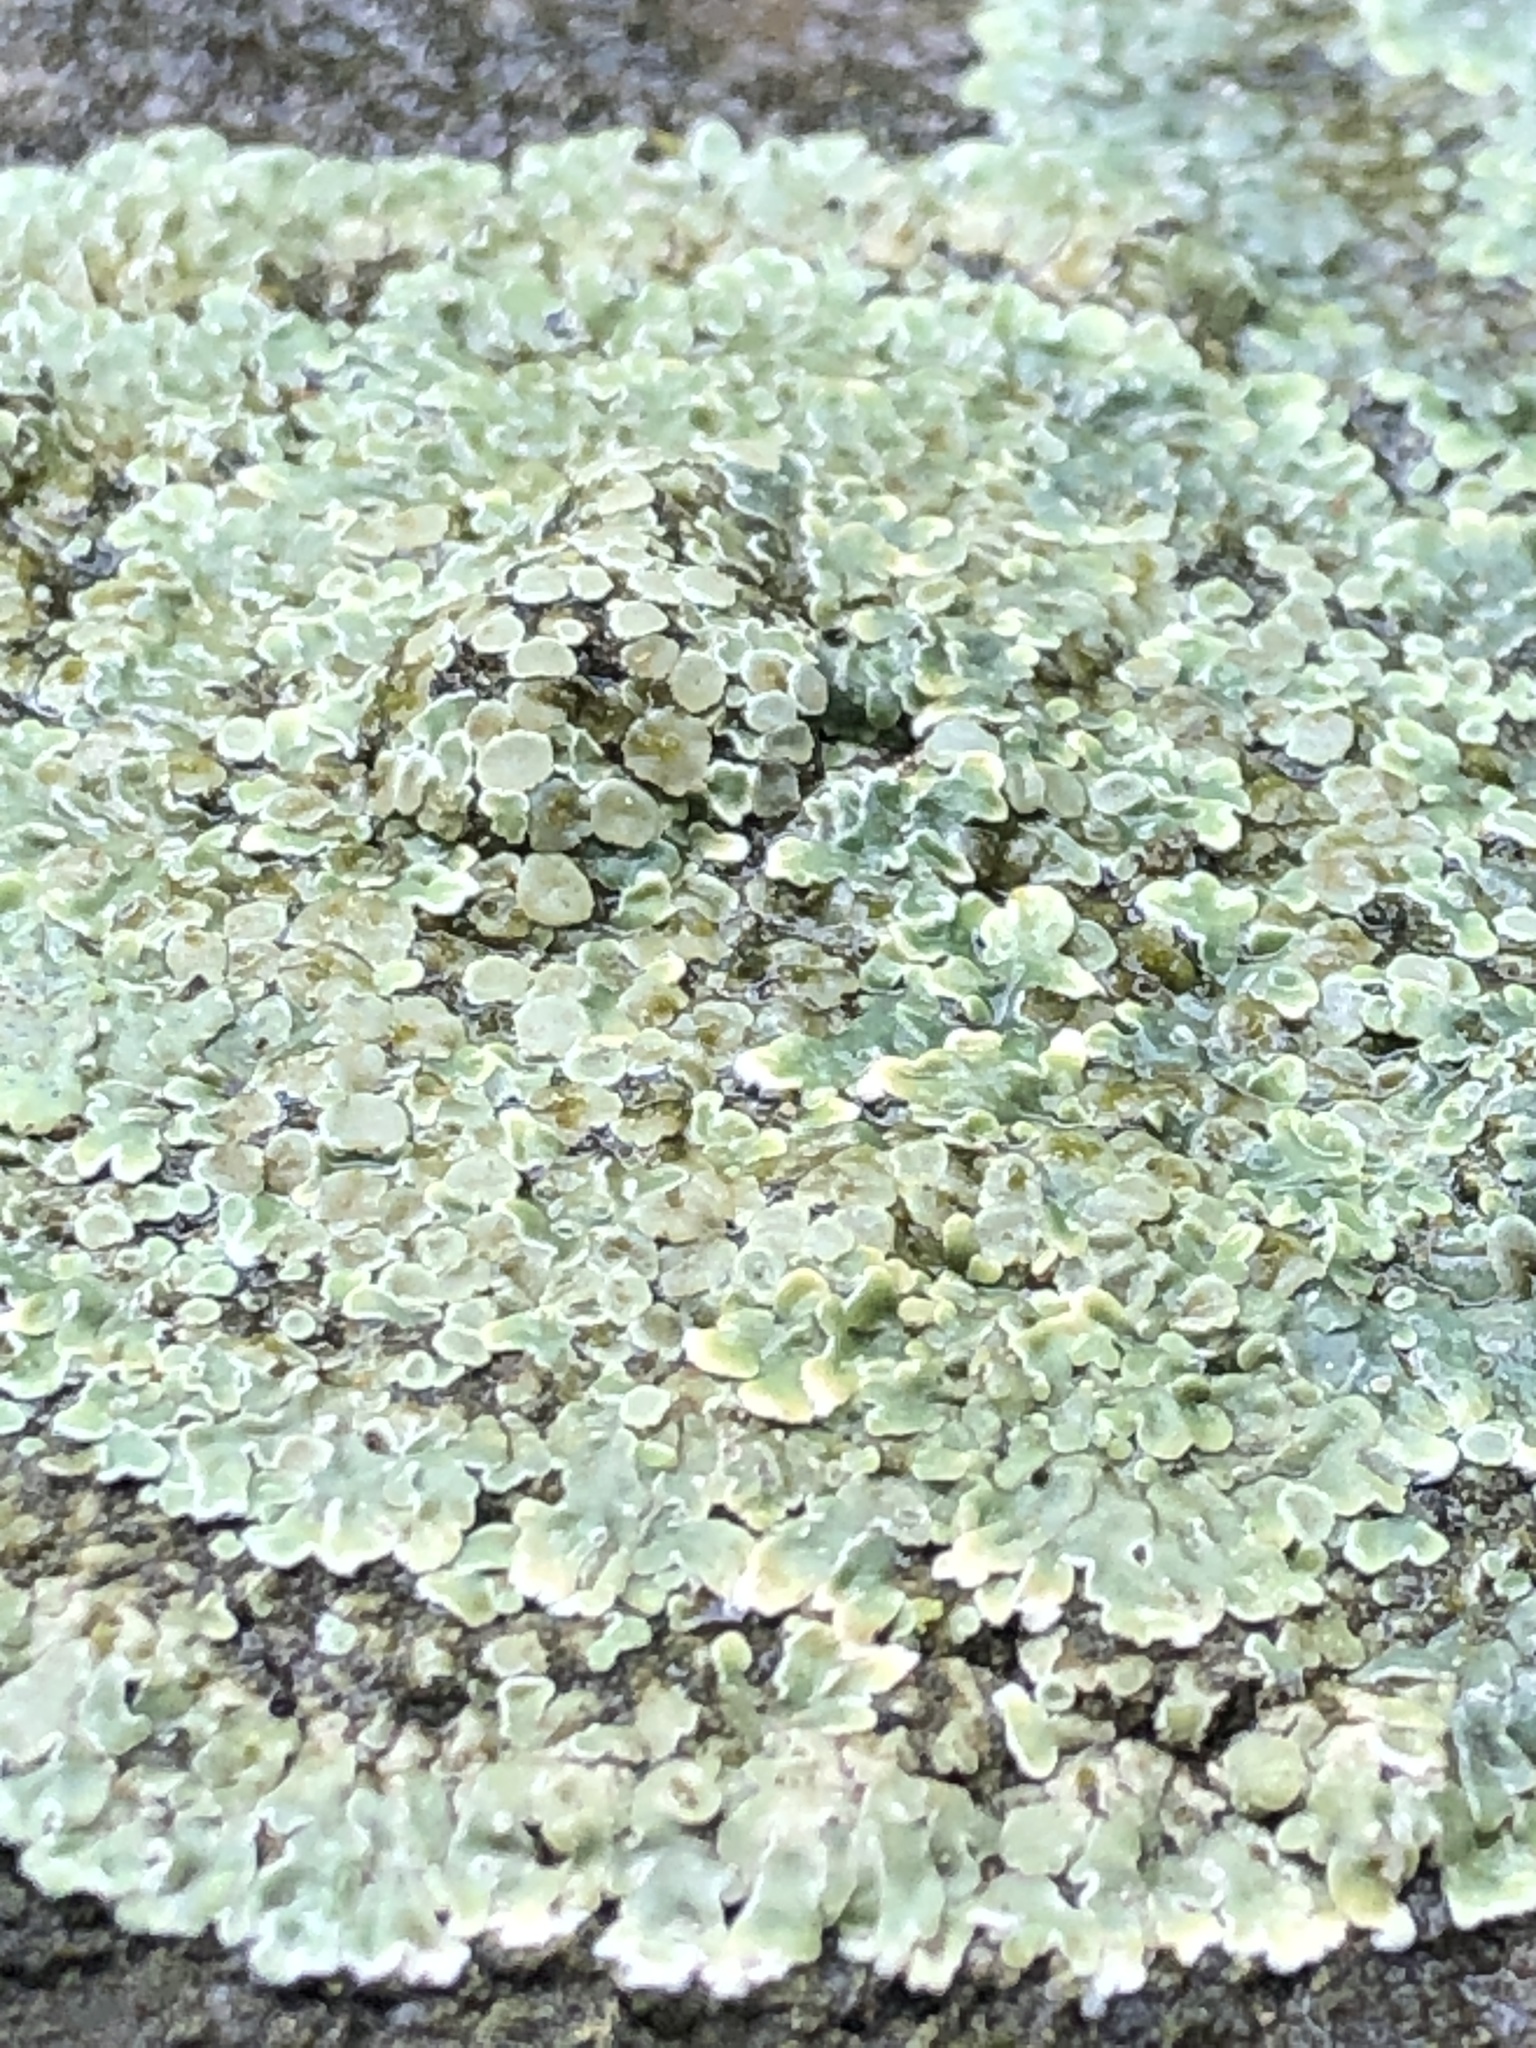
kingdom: Fungi
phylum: Ascomycota
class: Lecanoromycetes
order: Lecanorales
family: Lecanoraceae
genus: Protoparmeliopsis
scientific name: Protoparmeliopsis muralis
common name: Stonewall rim lichen
